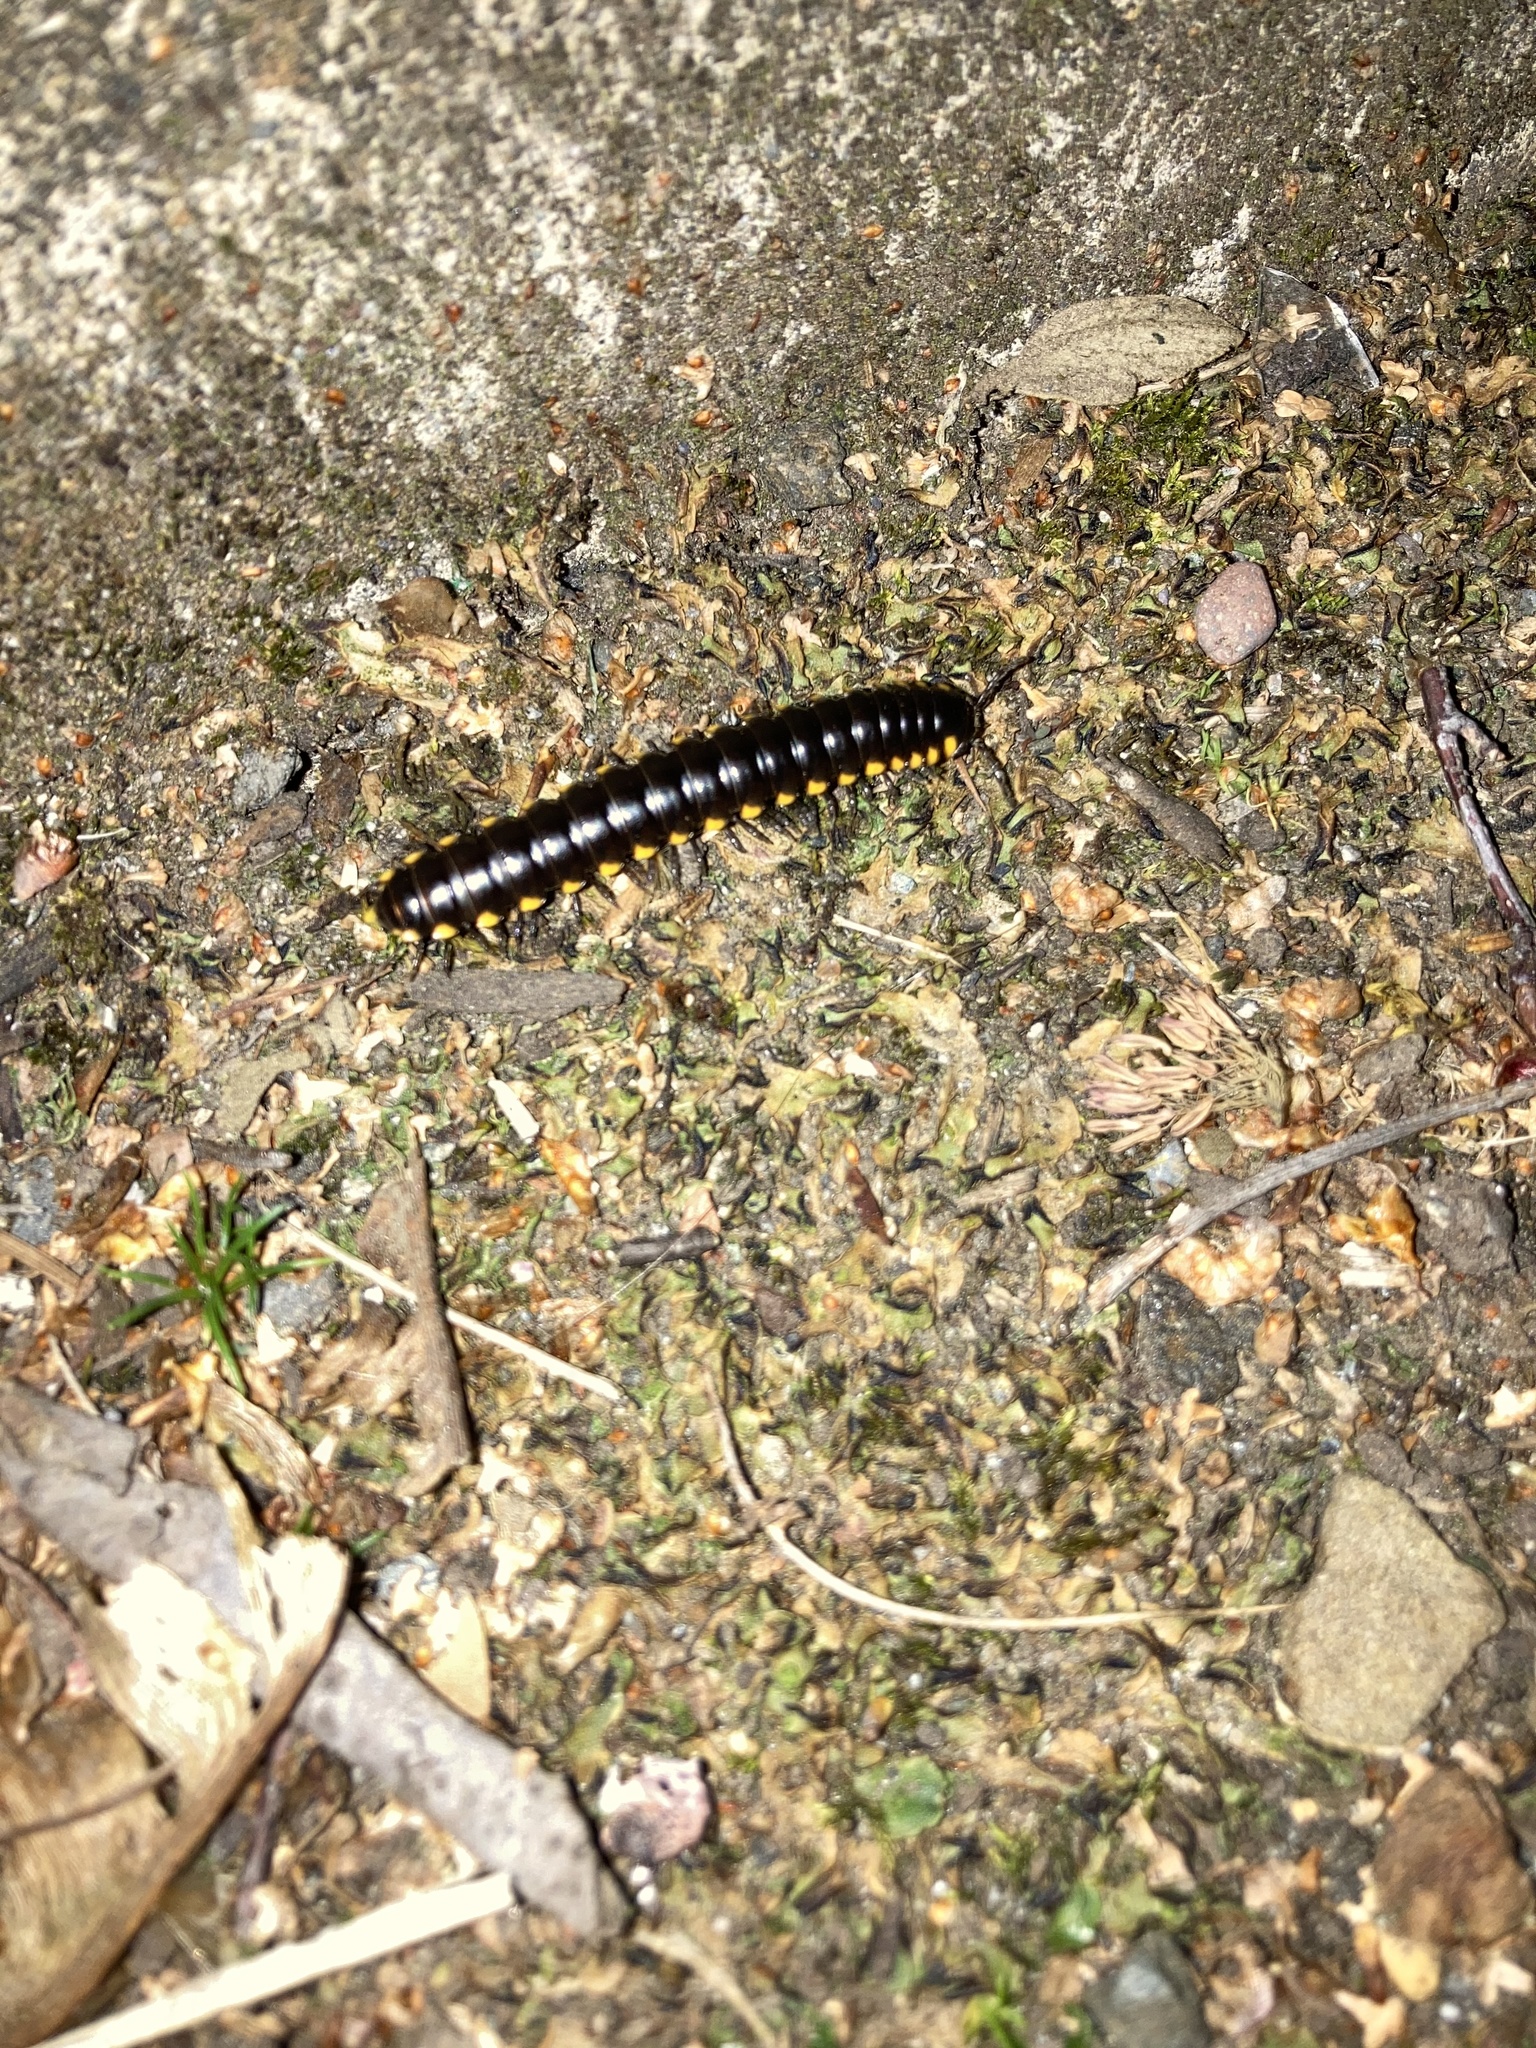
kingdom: Animalia
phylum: Arthropoda
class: Diplopoda
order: Polydesmida
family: Xystodesmidae
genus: Harpaphe
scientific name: Harpaphe haydeniana
